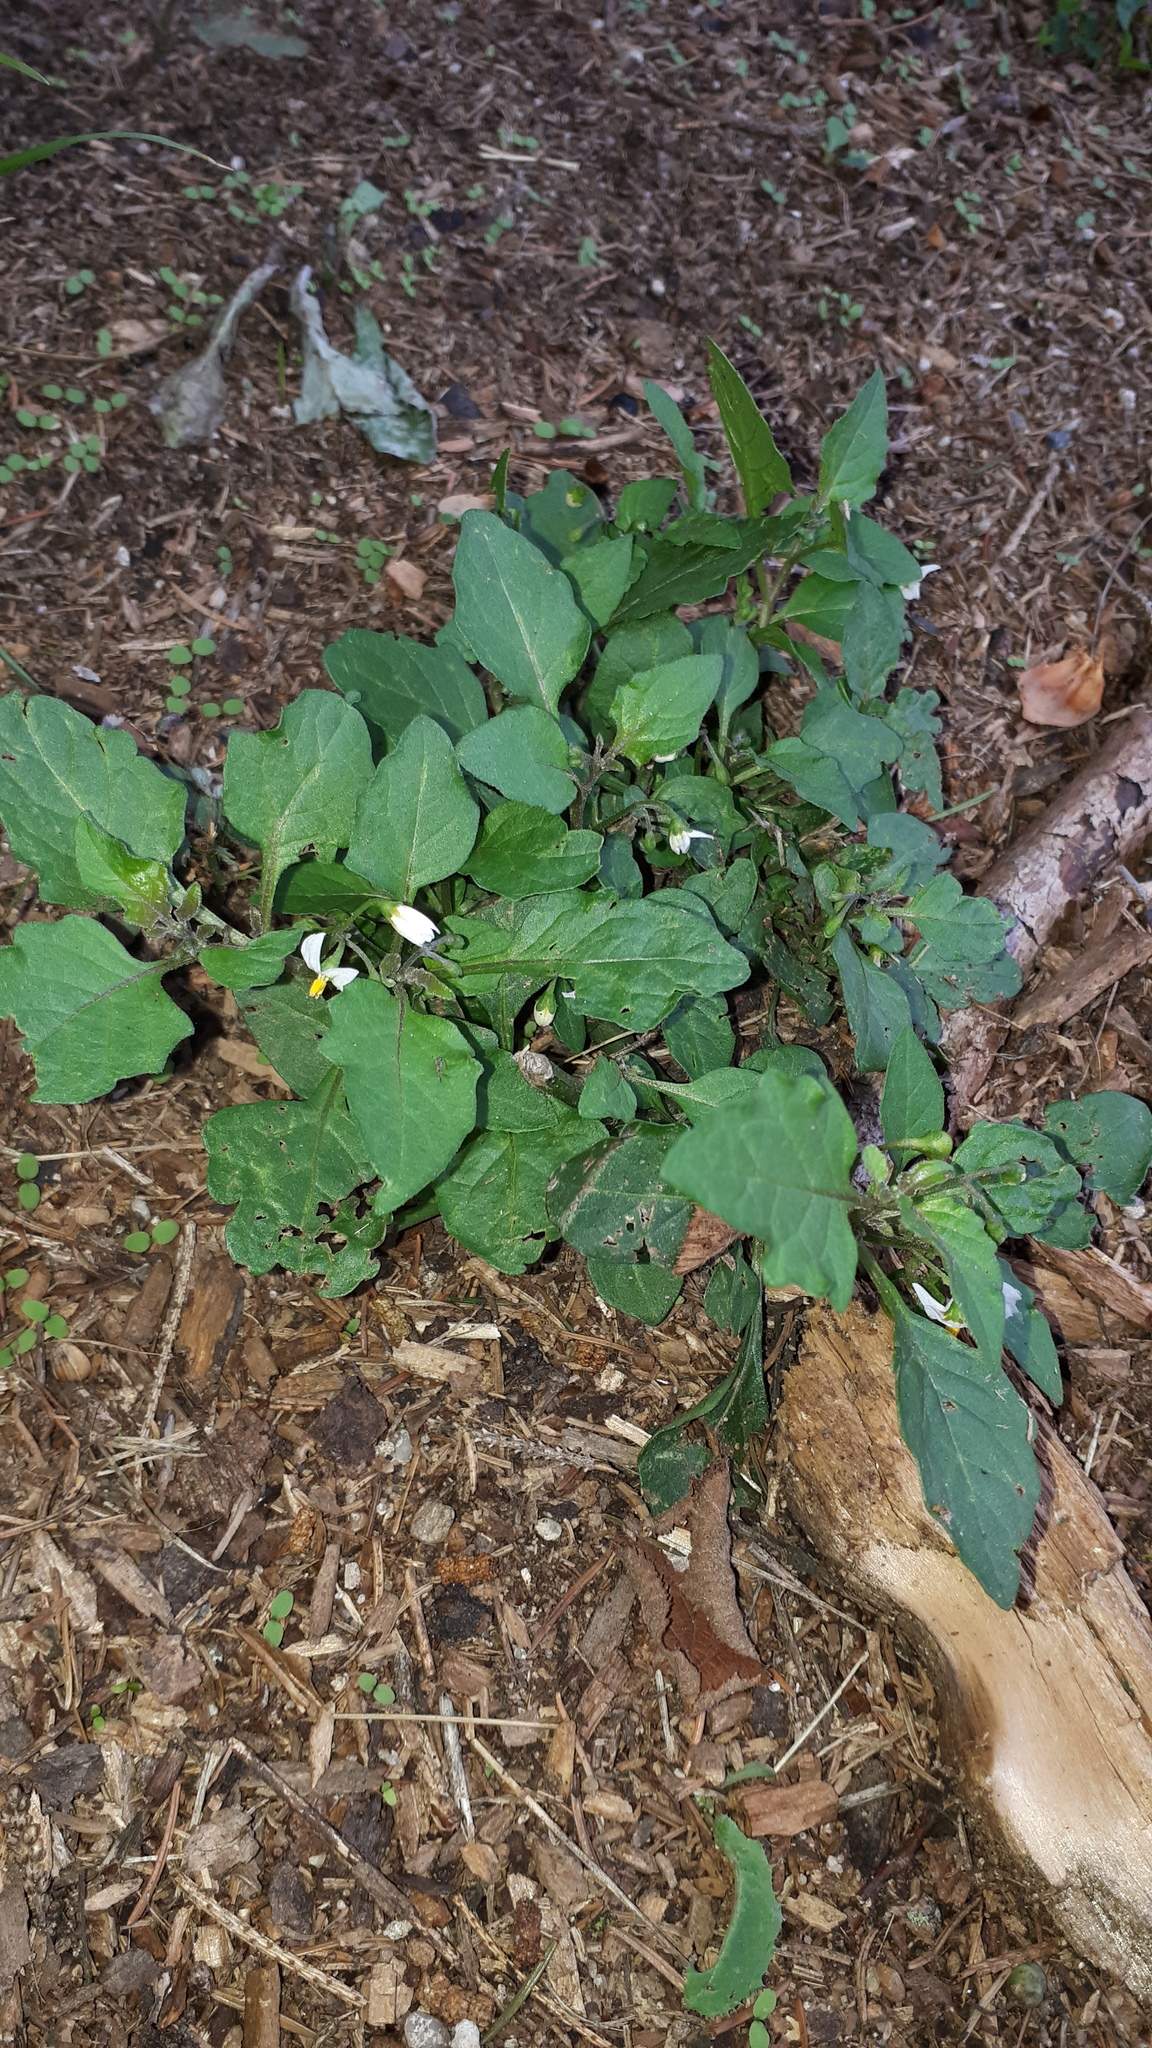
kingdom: Plantae
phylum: Tracheophyta
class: Magnoliopsida
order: Solanales
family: Solanaceae
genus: Solanum
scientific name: Solanum nigrum
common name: Black nightshade
